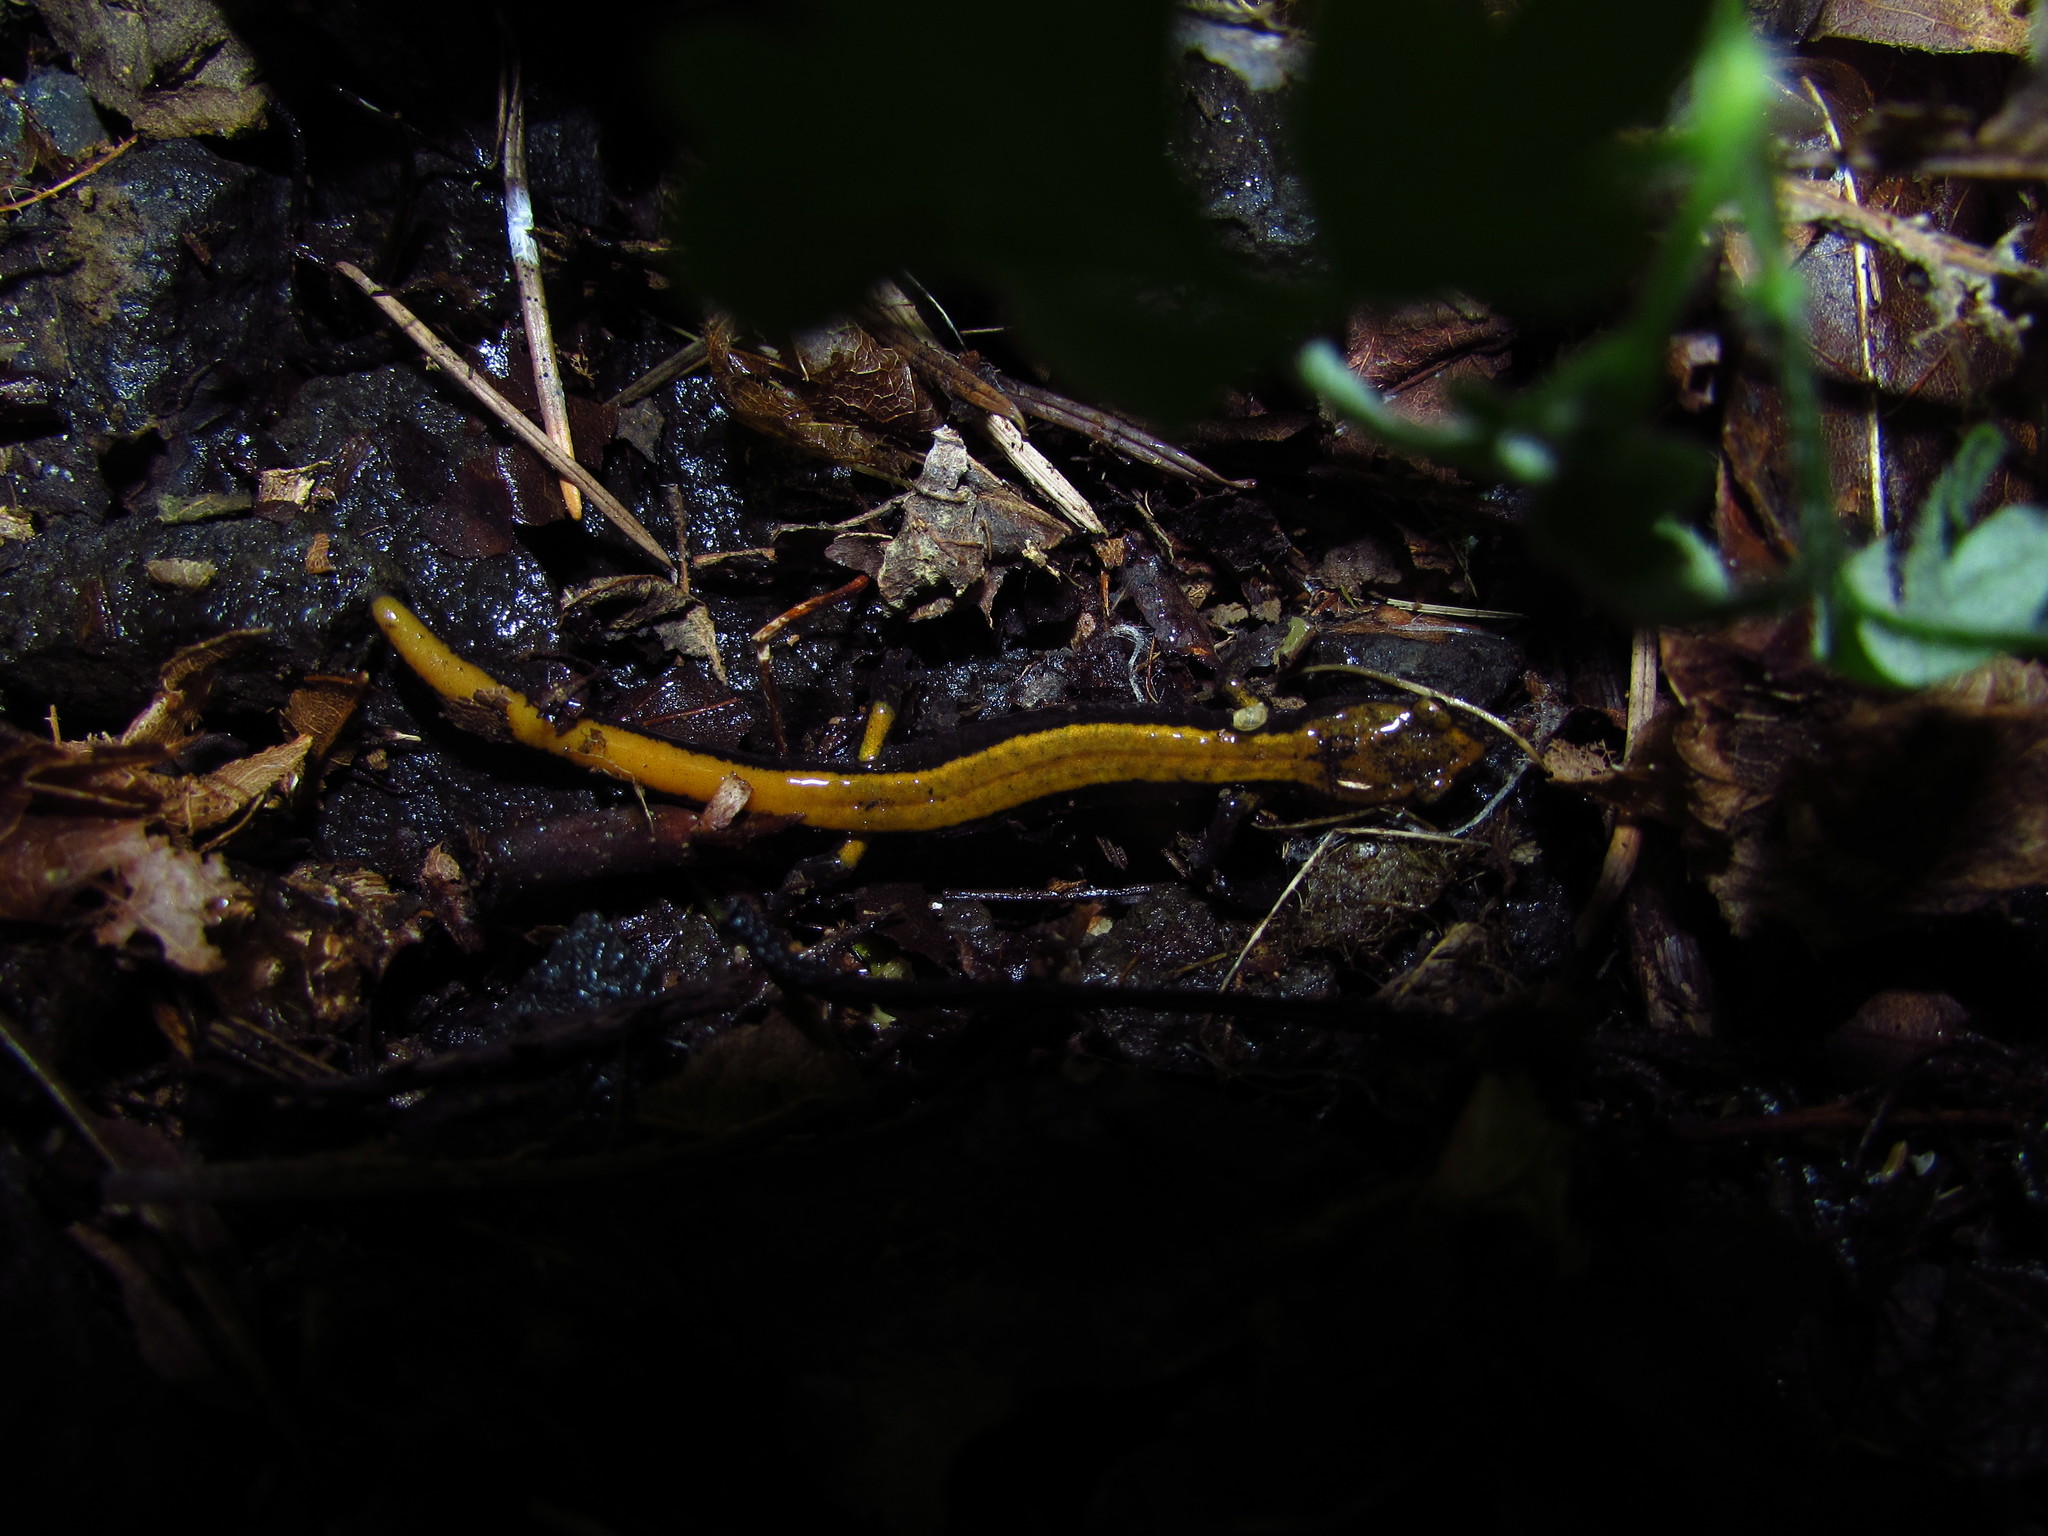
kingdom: Animalia
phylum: Chordata
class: Amphibia
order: Caudata
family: Plethodontidae
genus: Plethodon
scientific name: Plethodon vehiculum
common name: Western red-backed salamander
